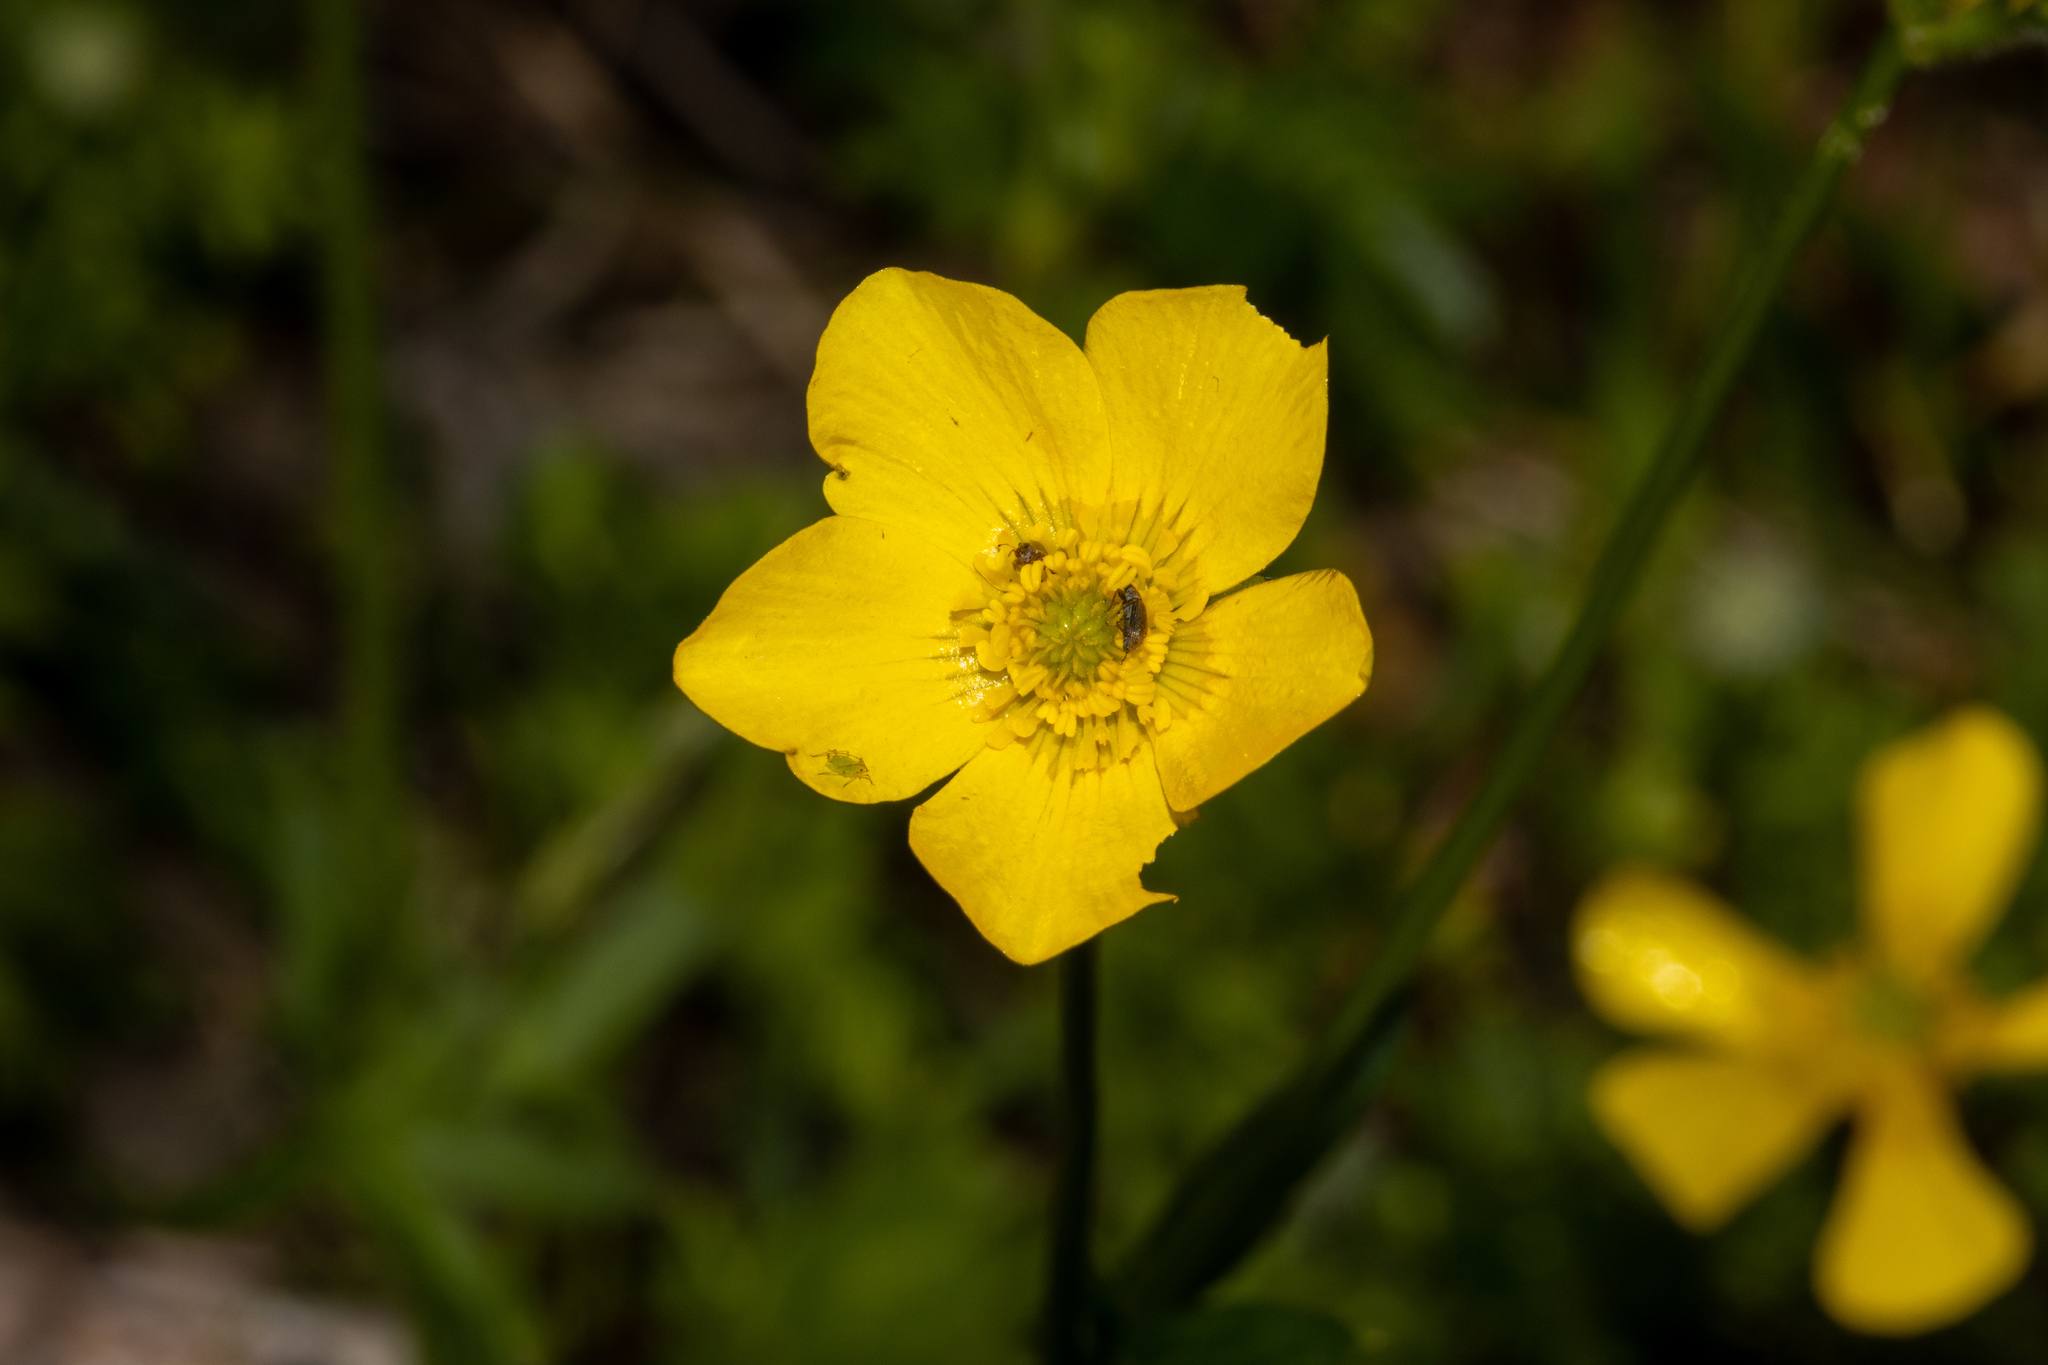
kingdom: Plantae
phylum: Tracheophyta
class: Magnoliopsida
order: Ranunculales
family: Ranunculaceae
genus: Ranunculus
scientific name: Ranunculus lappaceus
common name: Australian buttercup
